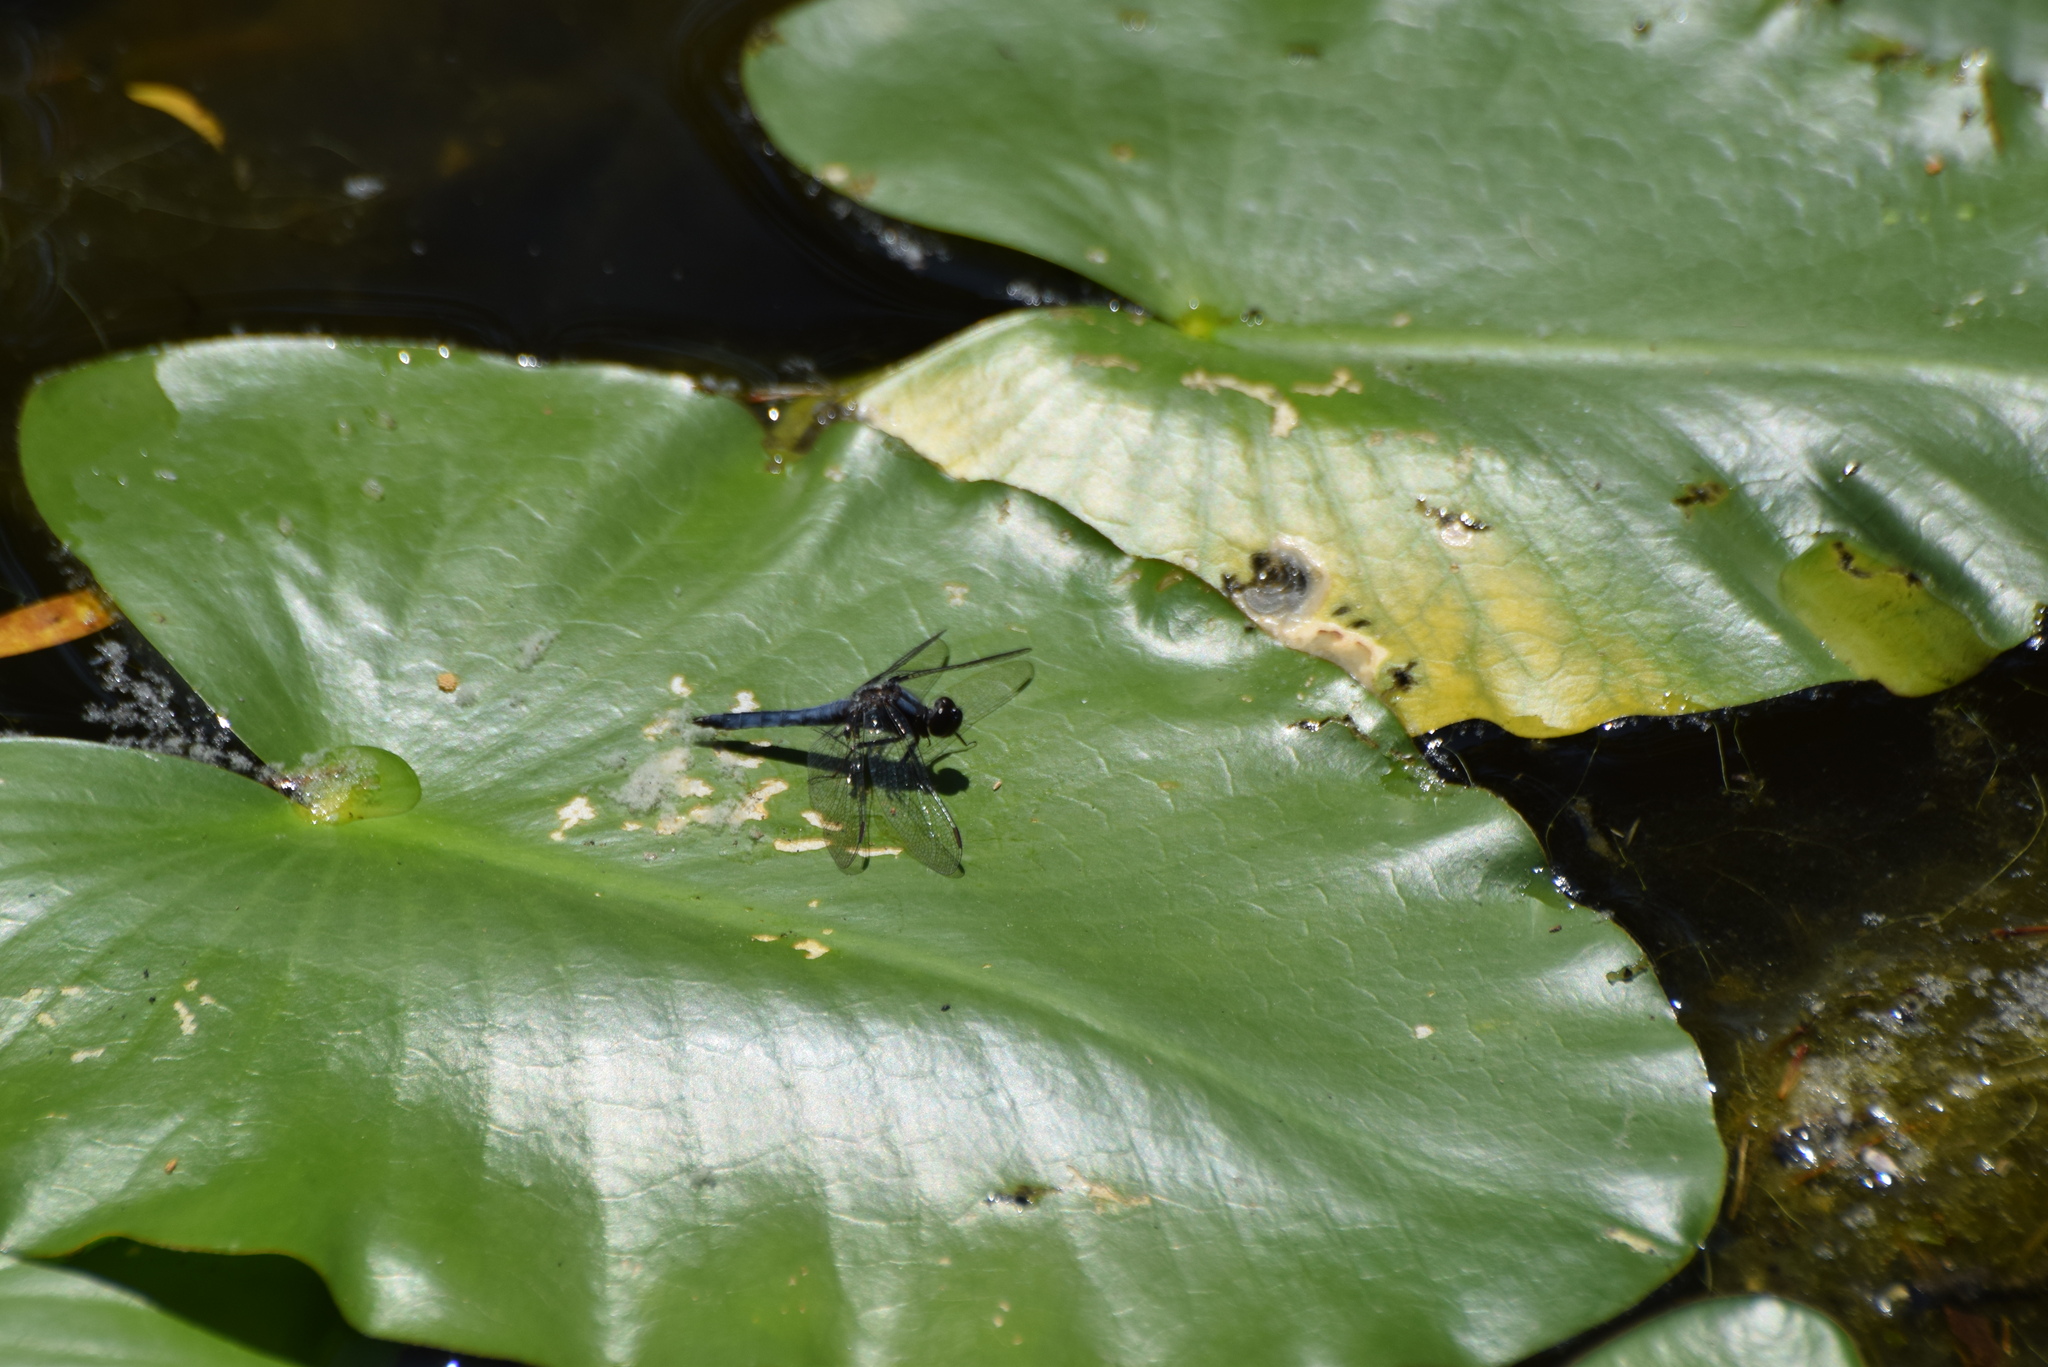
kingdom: Animalia
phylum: Arthropoda
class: Insecta
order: Odonata
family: Libellulidae
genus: Ladona
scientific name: Ladona deplanata
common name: Blue corporal
